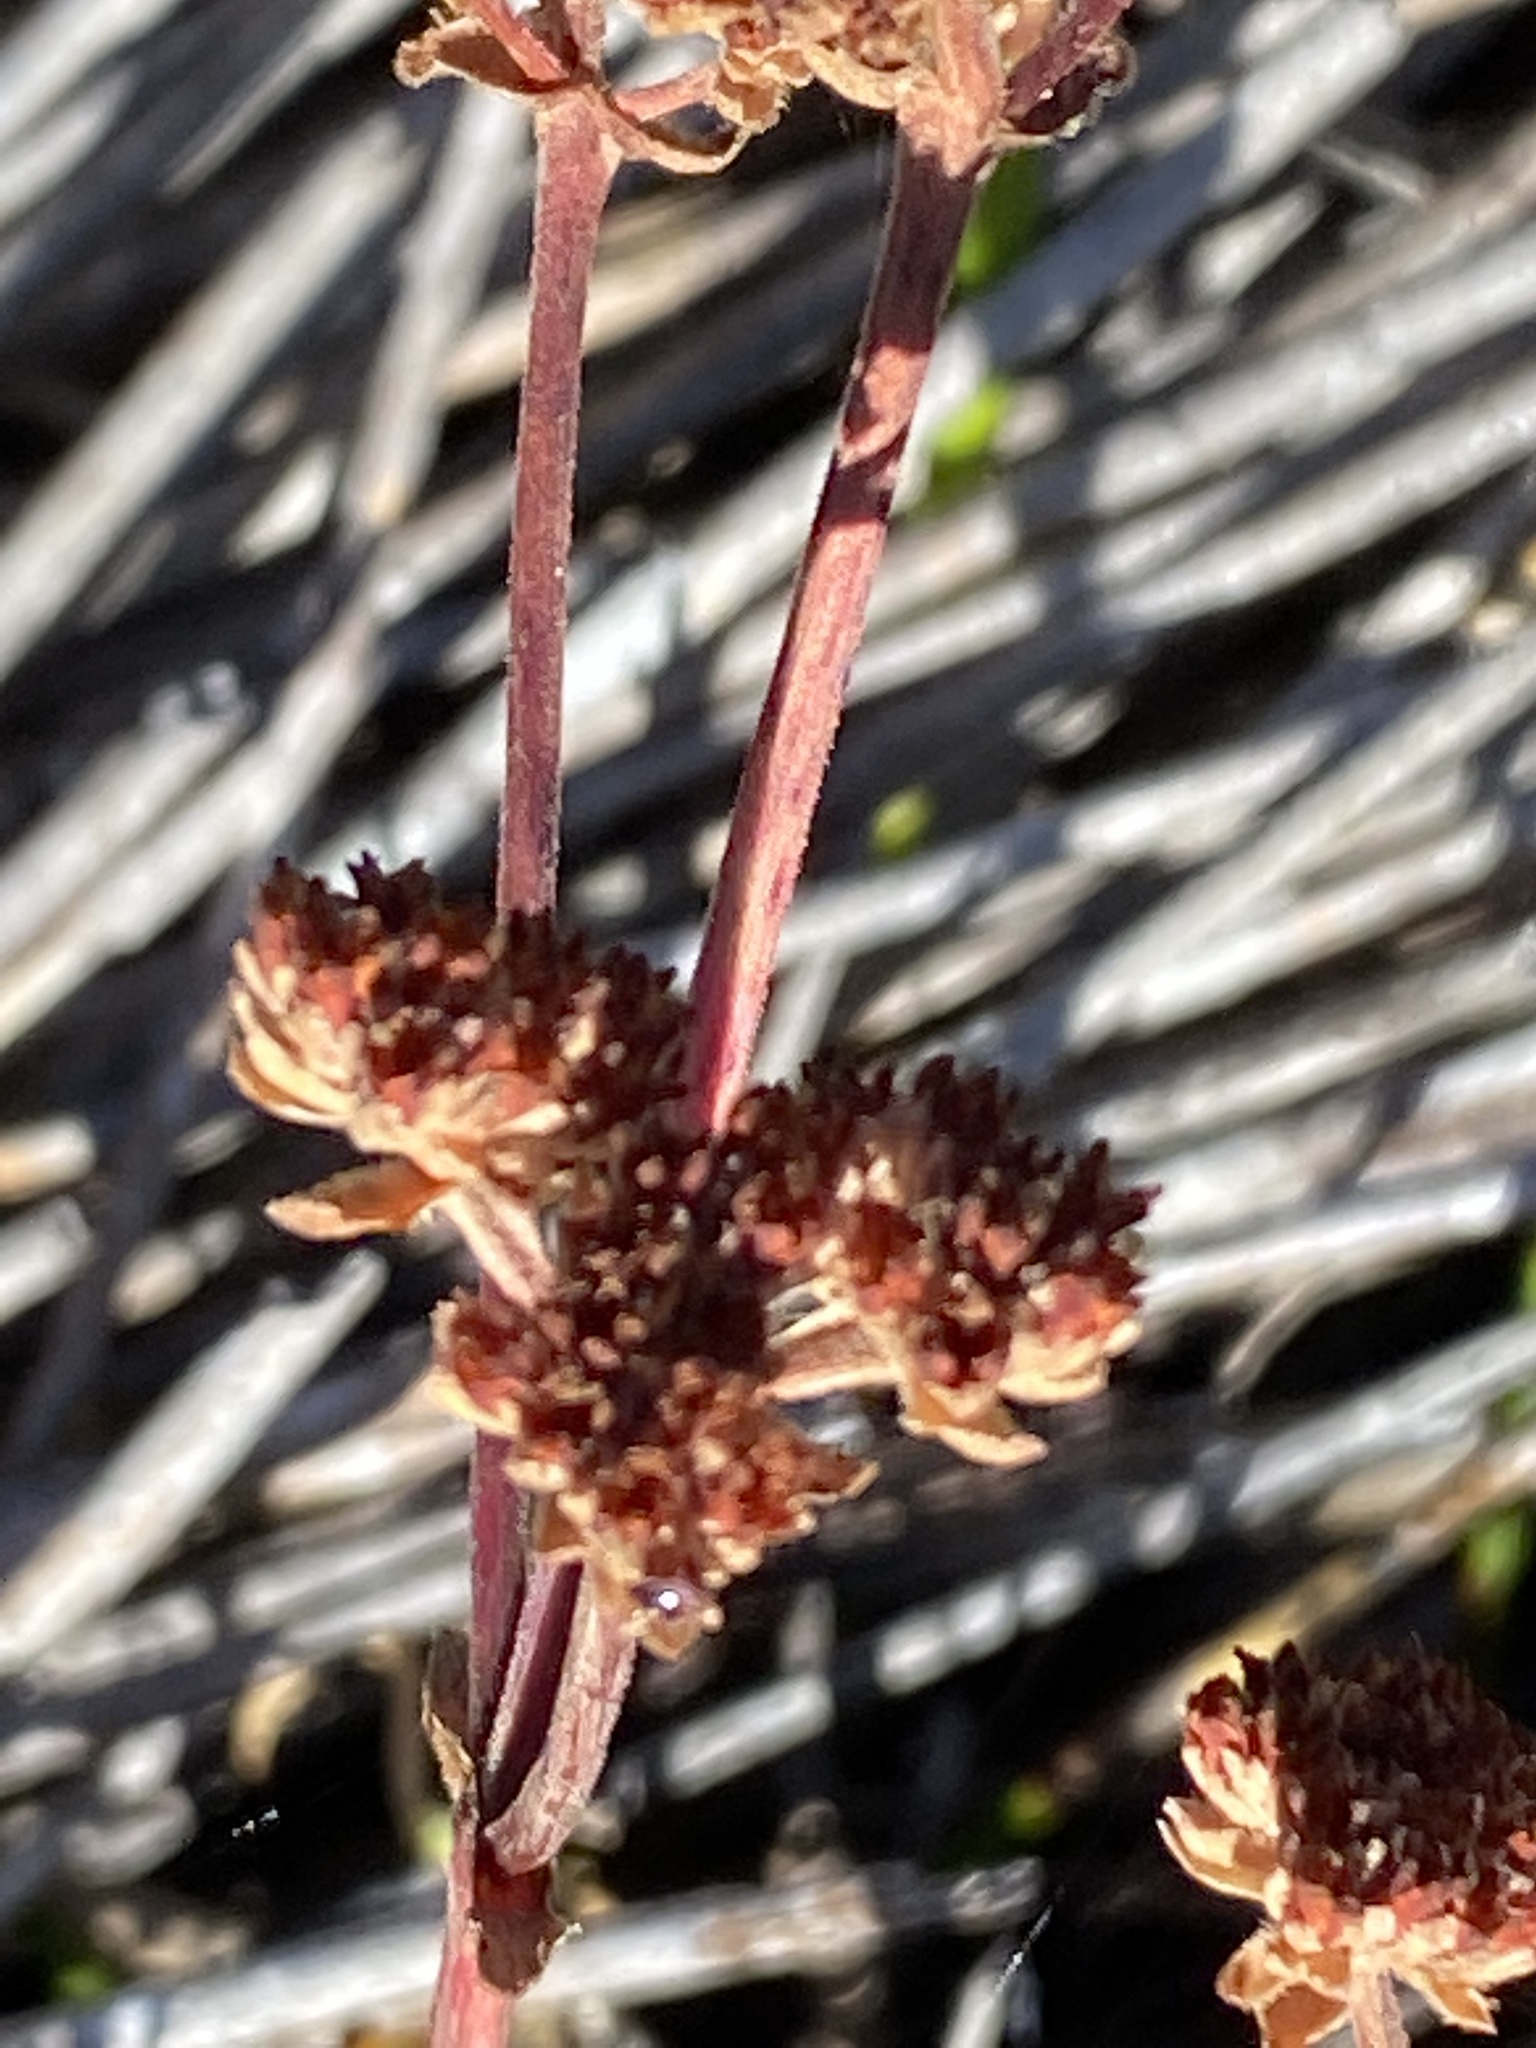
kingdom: Plantae
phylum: Tracheophyta
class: Magnoliopsida
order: Saxifragales
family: Crassulaceae
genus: Crassula
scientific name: Crassula nudicaulis
